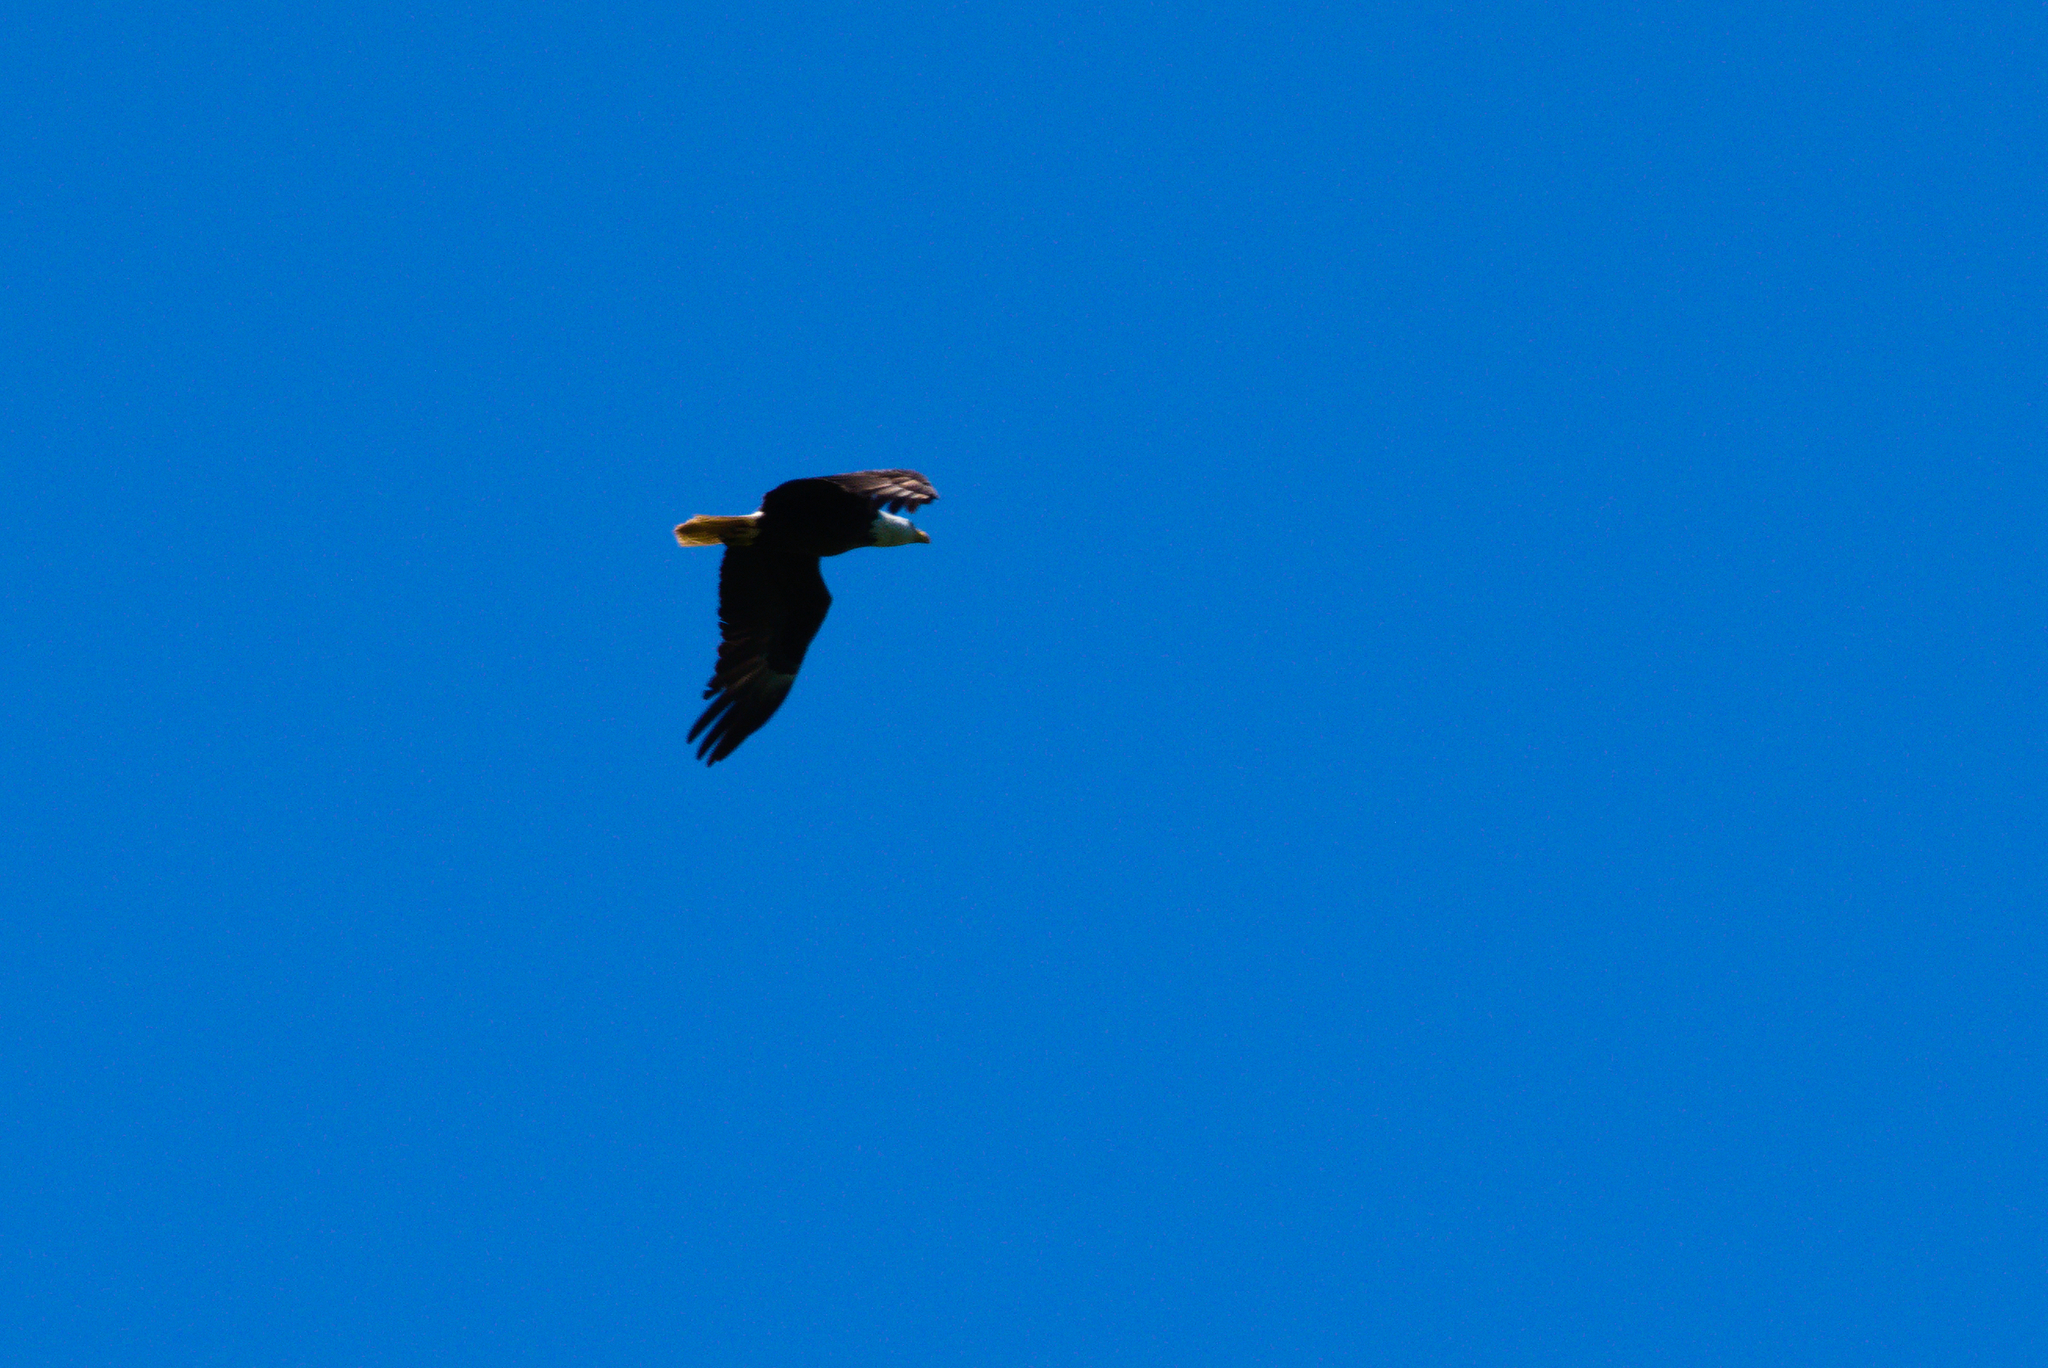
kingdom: Animalia
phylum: Chordata
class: Aves
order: Accipitriformes
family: Accipitridae
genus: Haliaeetus
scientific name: Haliaeetus leucocephalus
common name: Bald eagle
